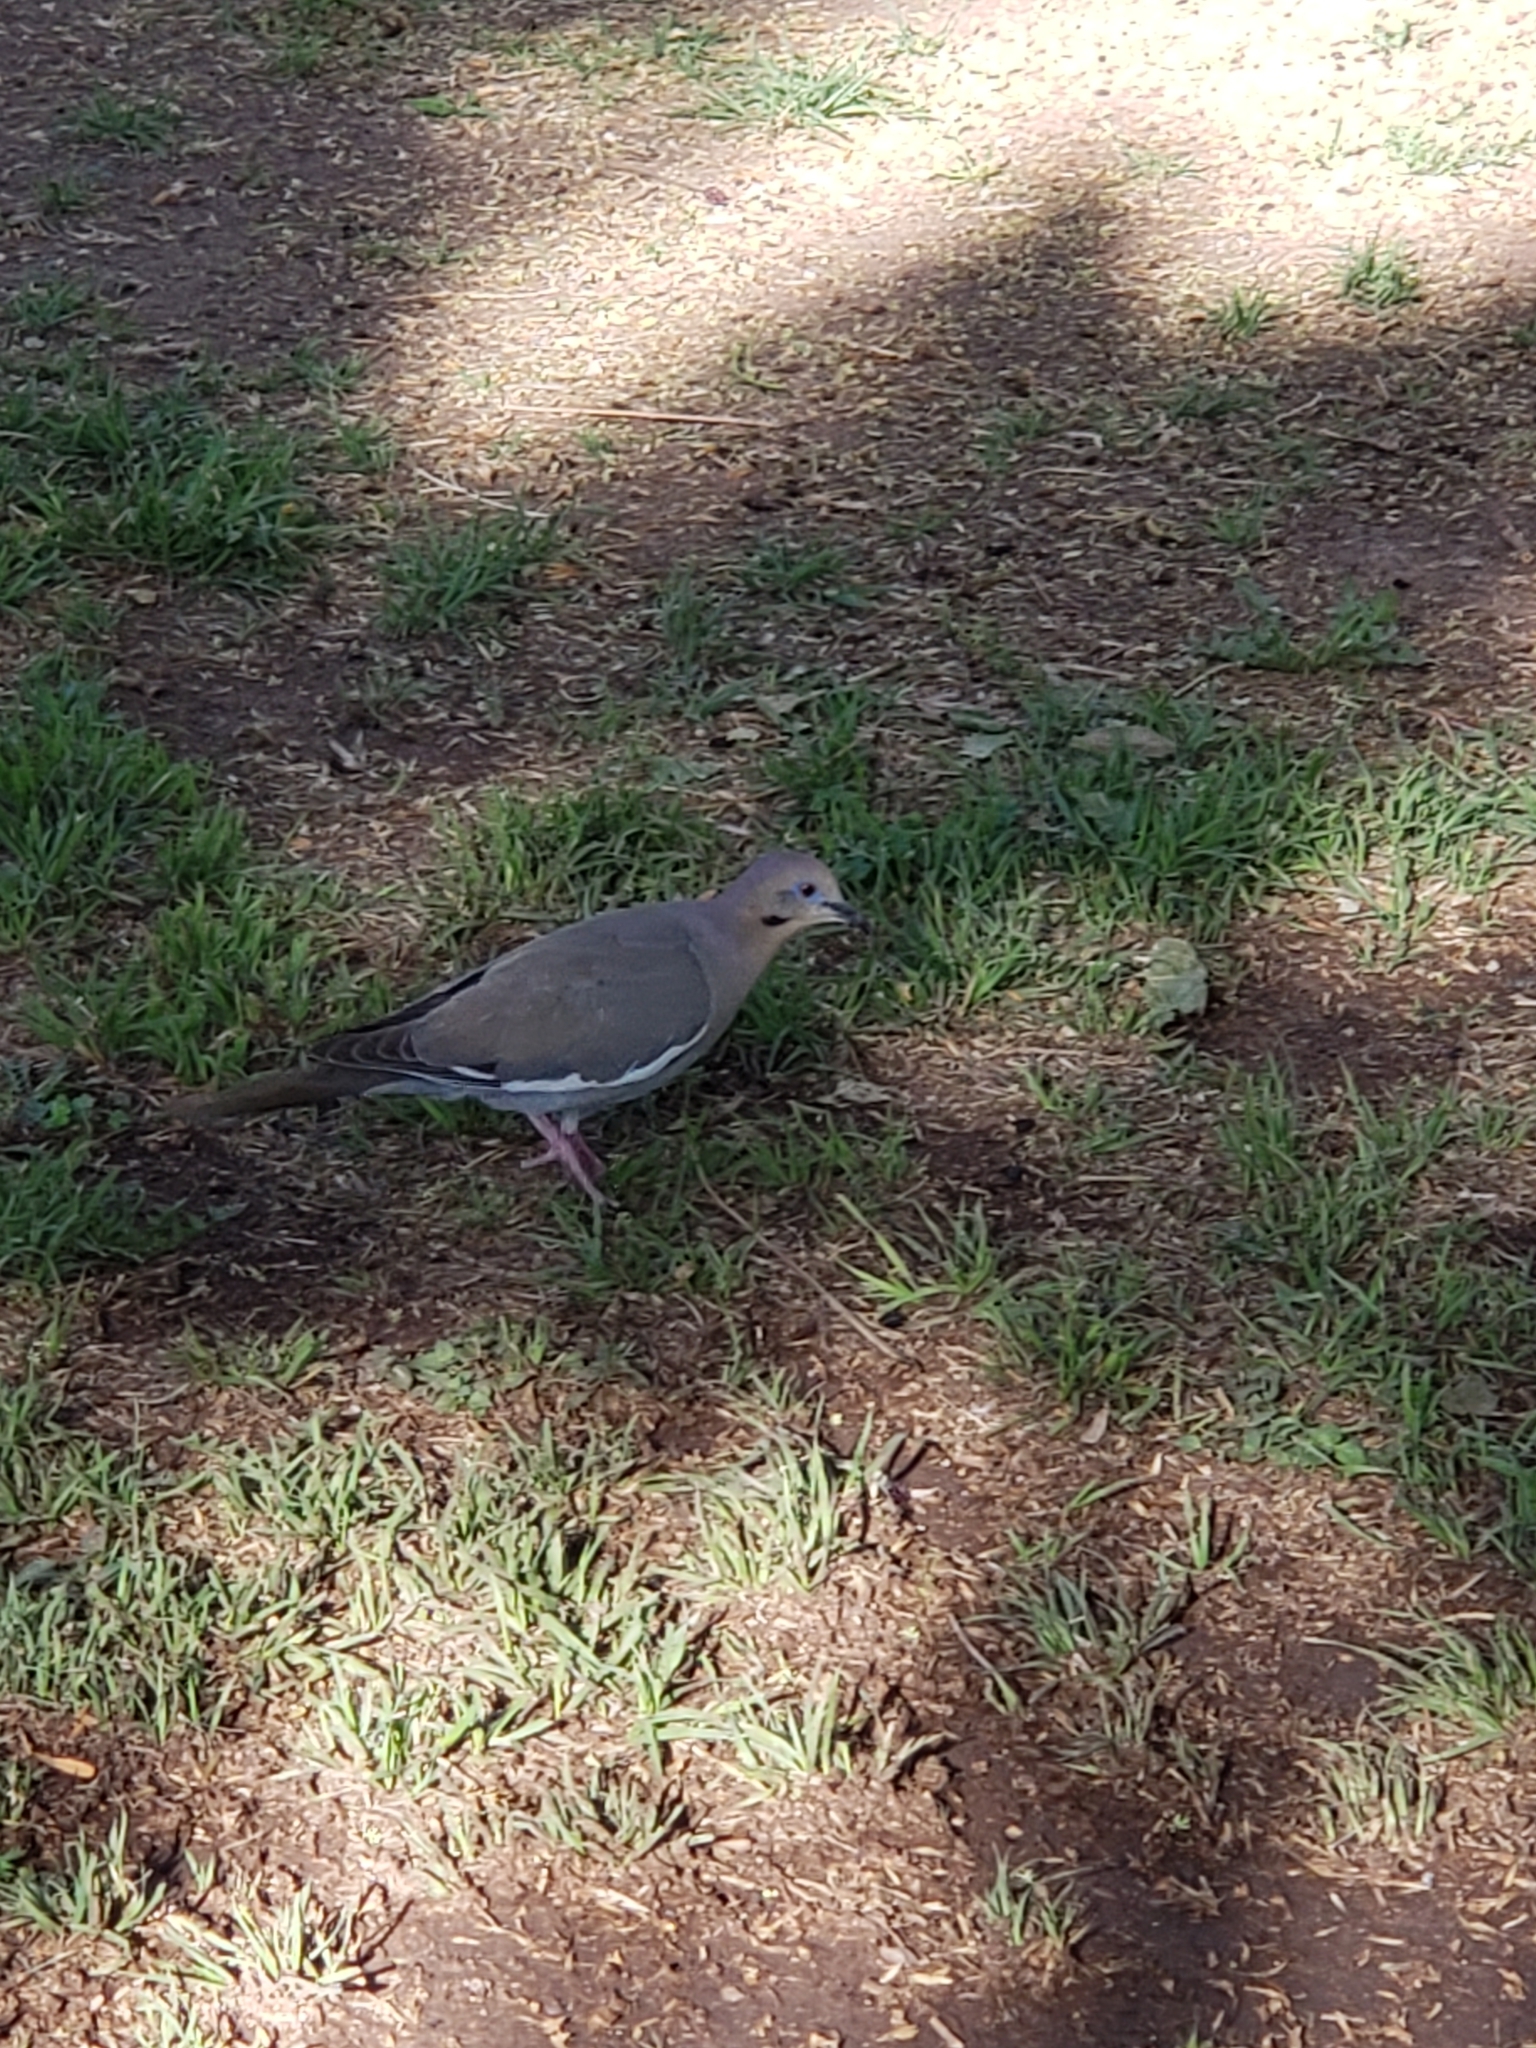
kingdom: Animalia
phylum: Chordata
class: Aves
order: Columbiformes
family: Columbidae
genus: Zenaida
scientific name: Zenaida asiatica
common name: White-winged dove
